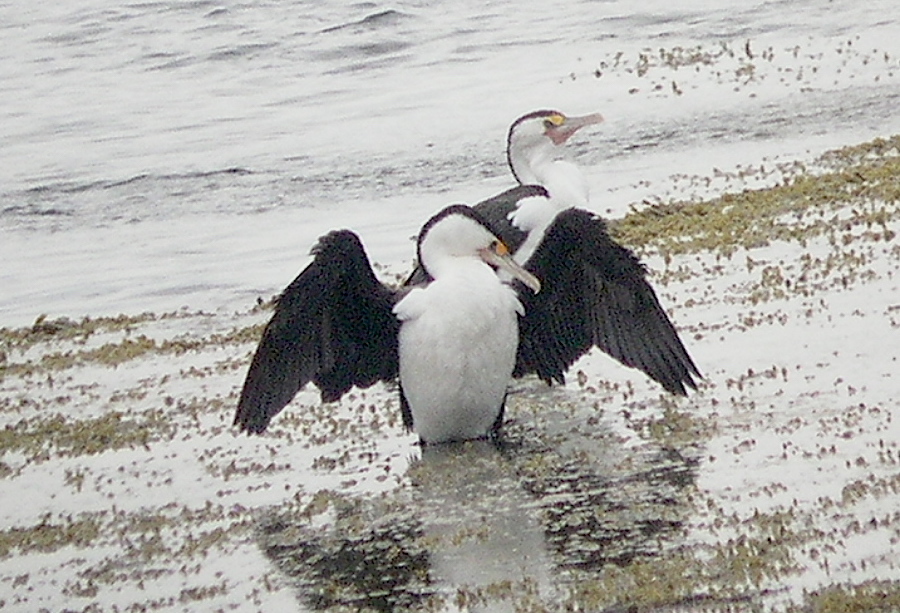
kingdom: Animalia
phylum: Chordata
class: Aves
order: Suliformes
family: Phalacrocoracidae
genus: Phalacrocorax
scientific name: Phalacrocorax varius
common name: Pied cormorant
